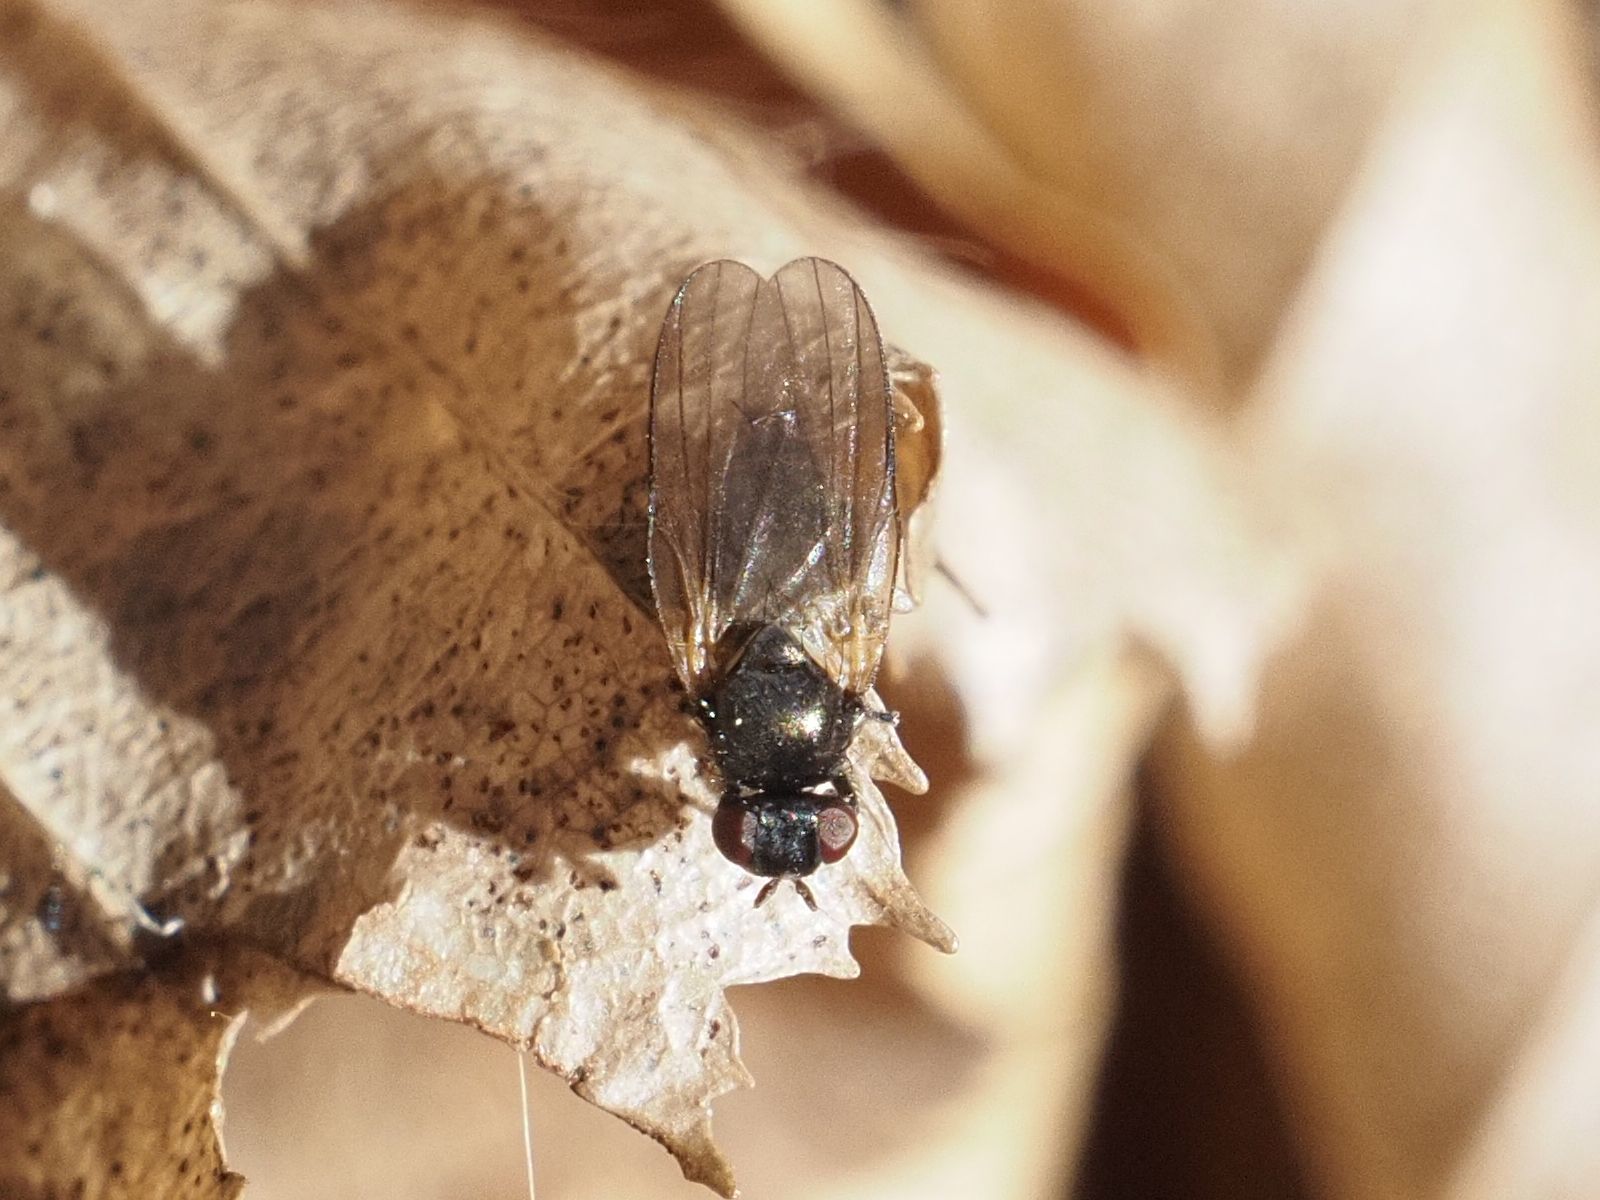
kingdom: Animalia
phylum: Arthropoda
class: Insecta
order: Diptera
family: Lonchaeidae
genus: Earomyia
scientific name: Earomyia lonchaeoides
